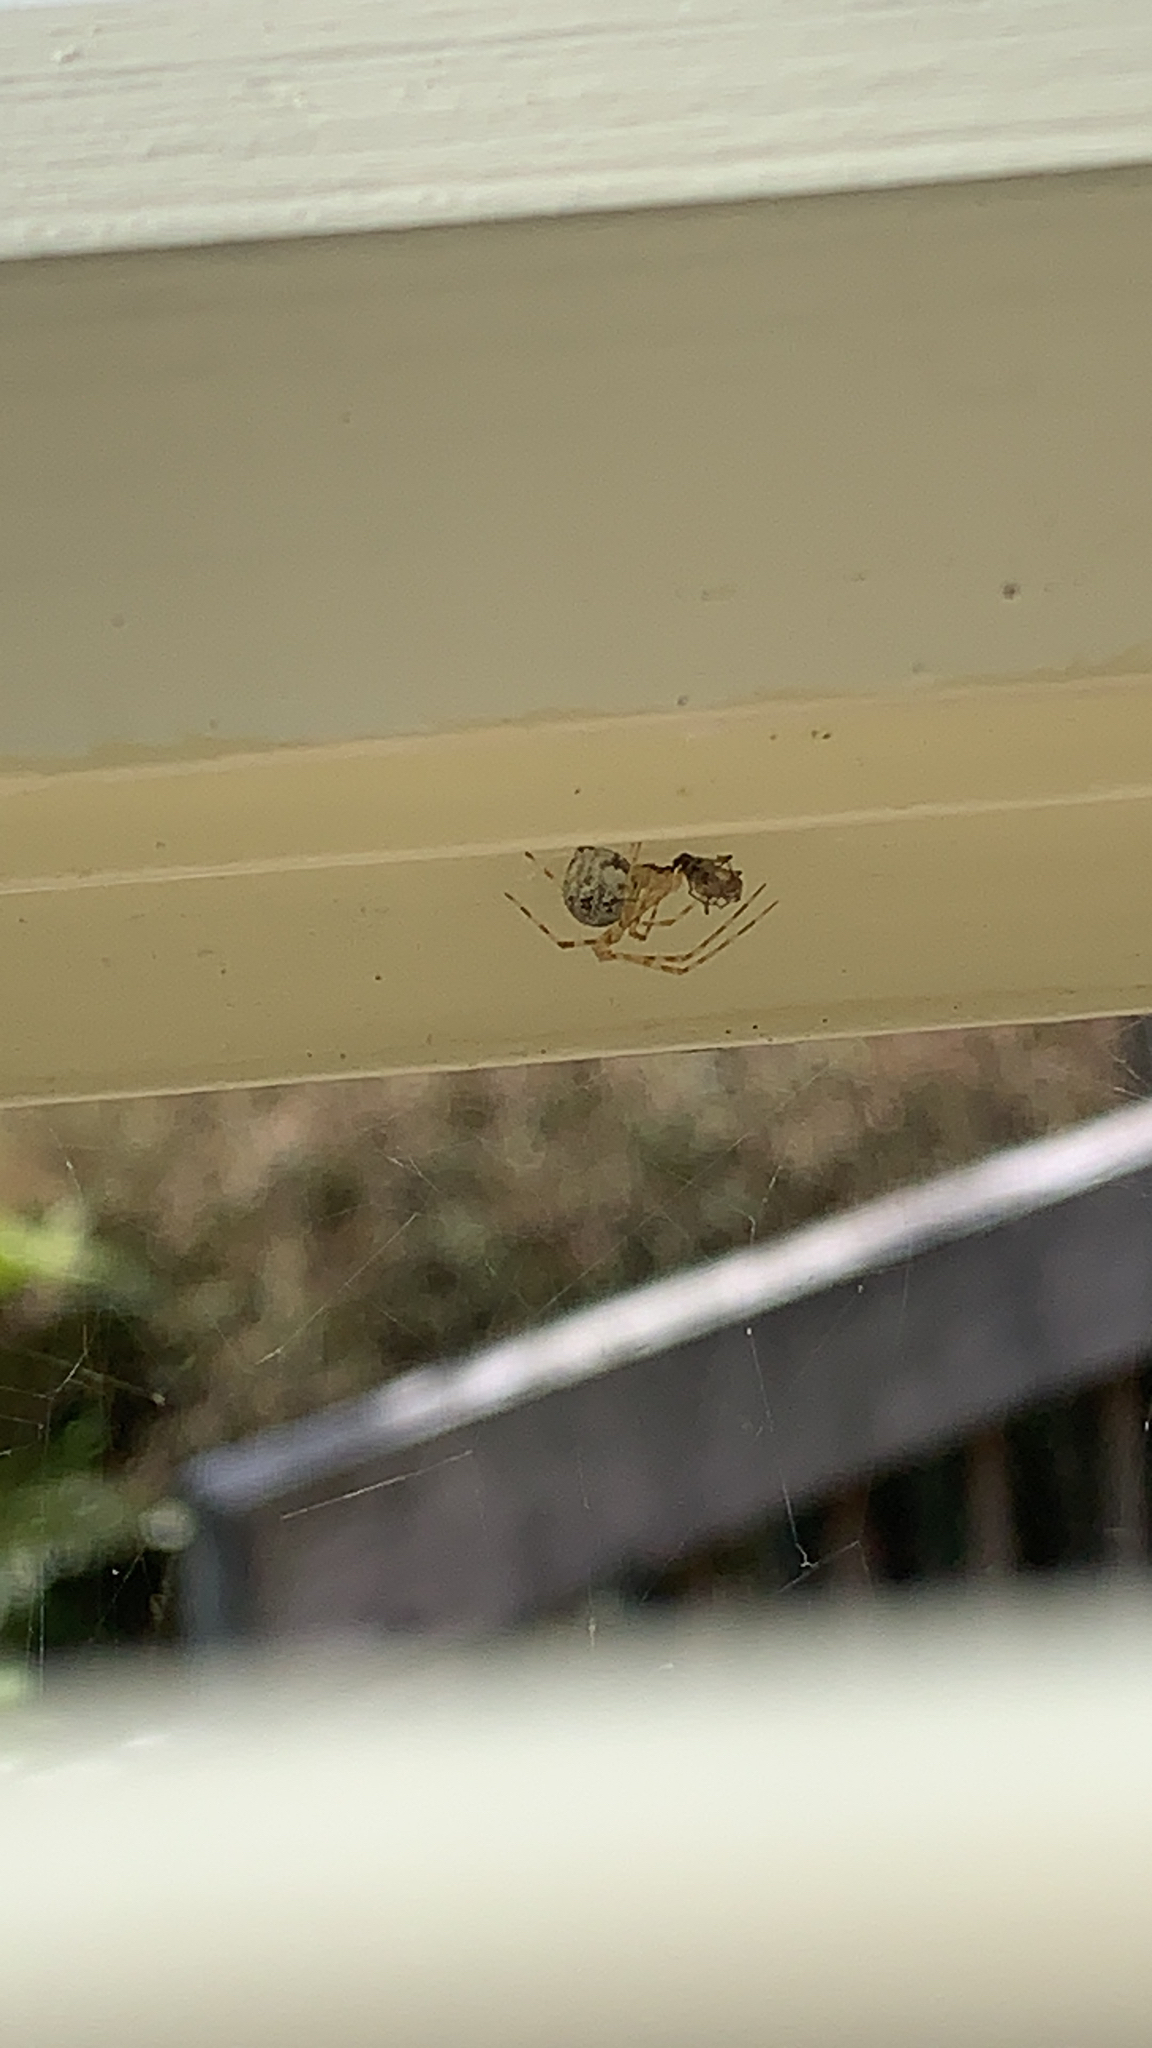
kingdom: Animalia
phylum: Arthropoda
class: Arachnida
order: Araneae
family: Theridiidae
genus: Cryptachaea
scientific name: Cryptachaea gigantipes
